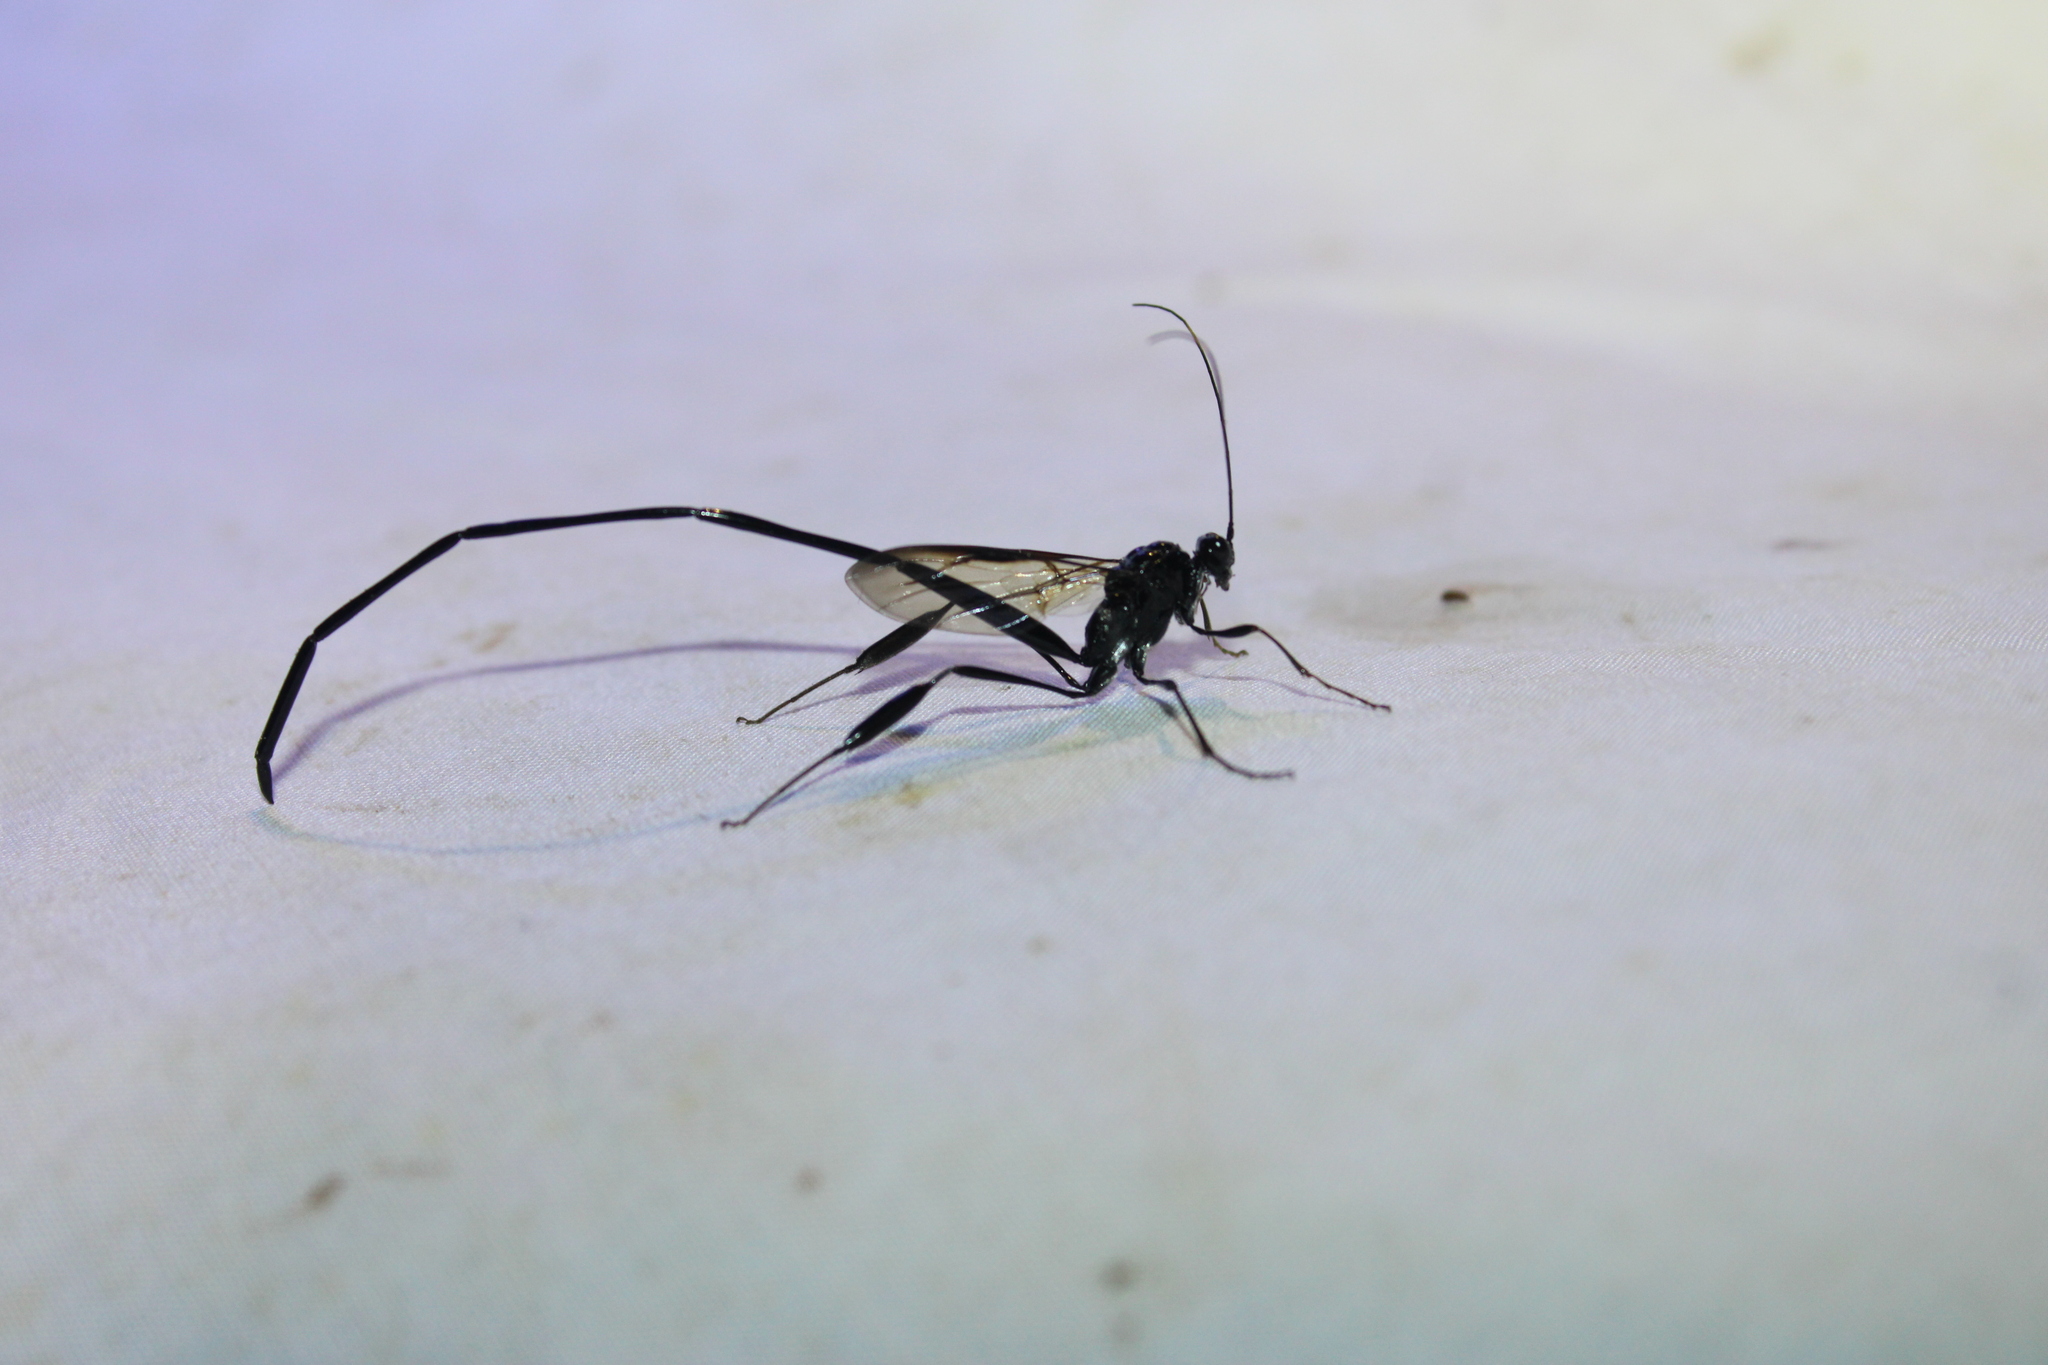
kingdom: Animalia
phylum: Arthropoda
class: Insecta
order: Hymenoptera
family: Pelecinidae
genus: Pelecinus
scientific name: Pelecinus polyturator
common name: American pelecinid wasp
